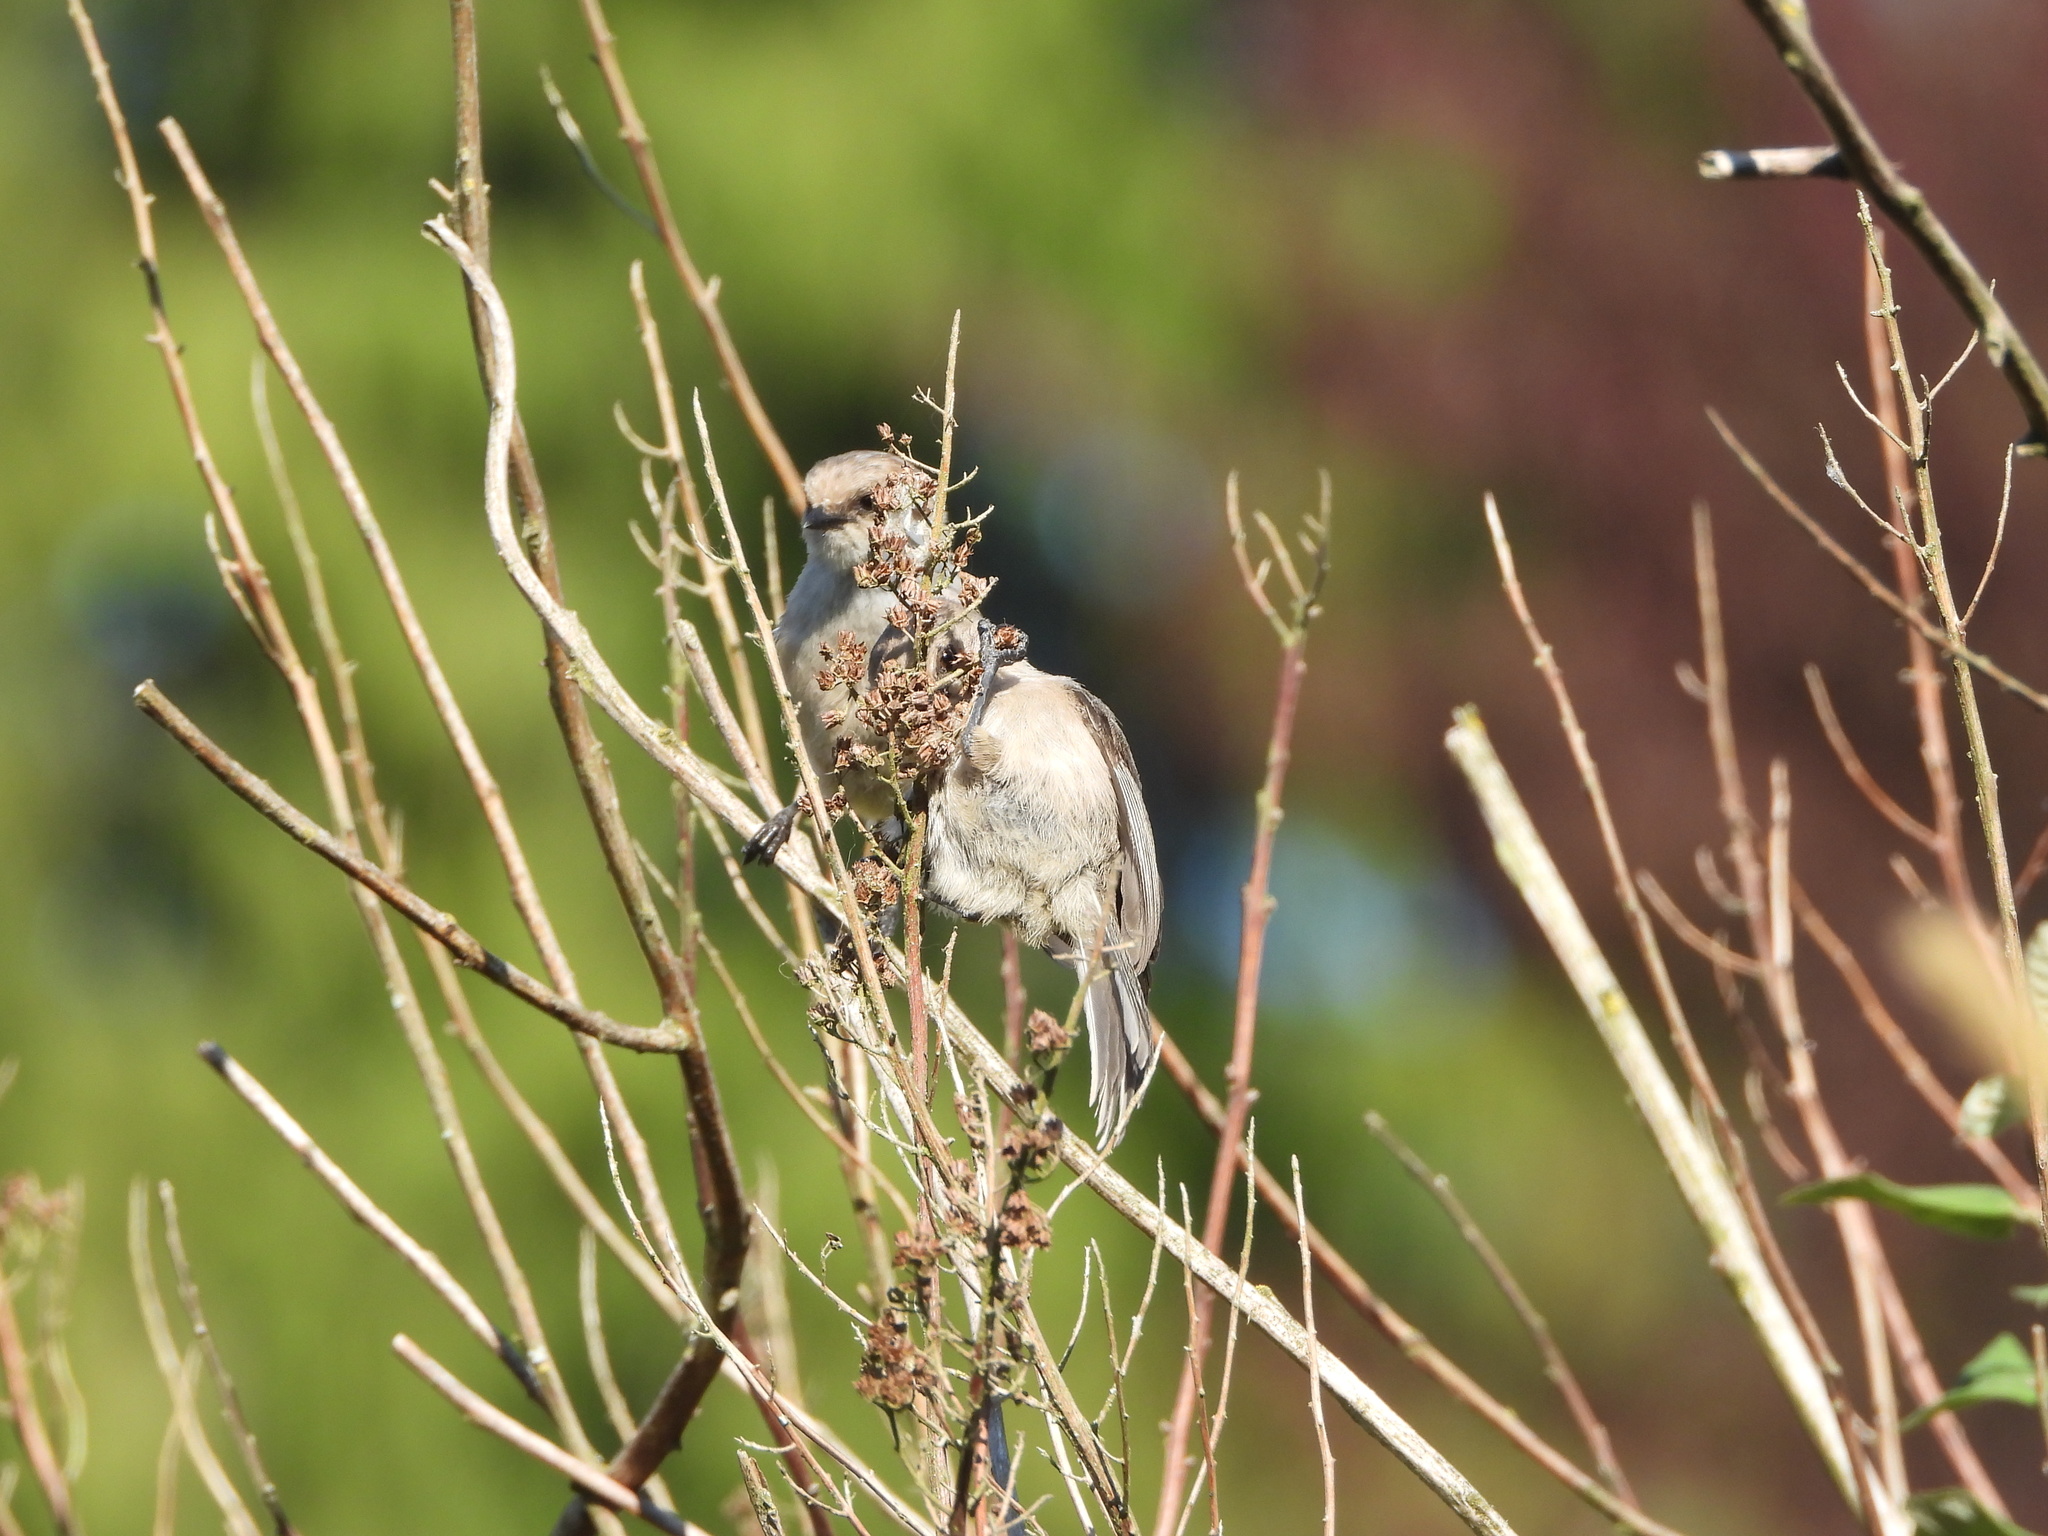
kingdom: Animalia
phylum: Chordata
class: Aves
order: Passeriformes
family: Aegithalidae
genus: Psaltriparus
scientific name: Psaltriparus minimus
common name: American bushtit
